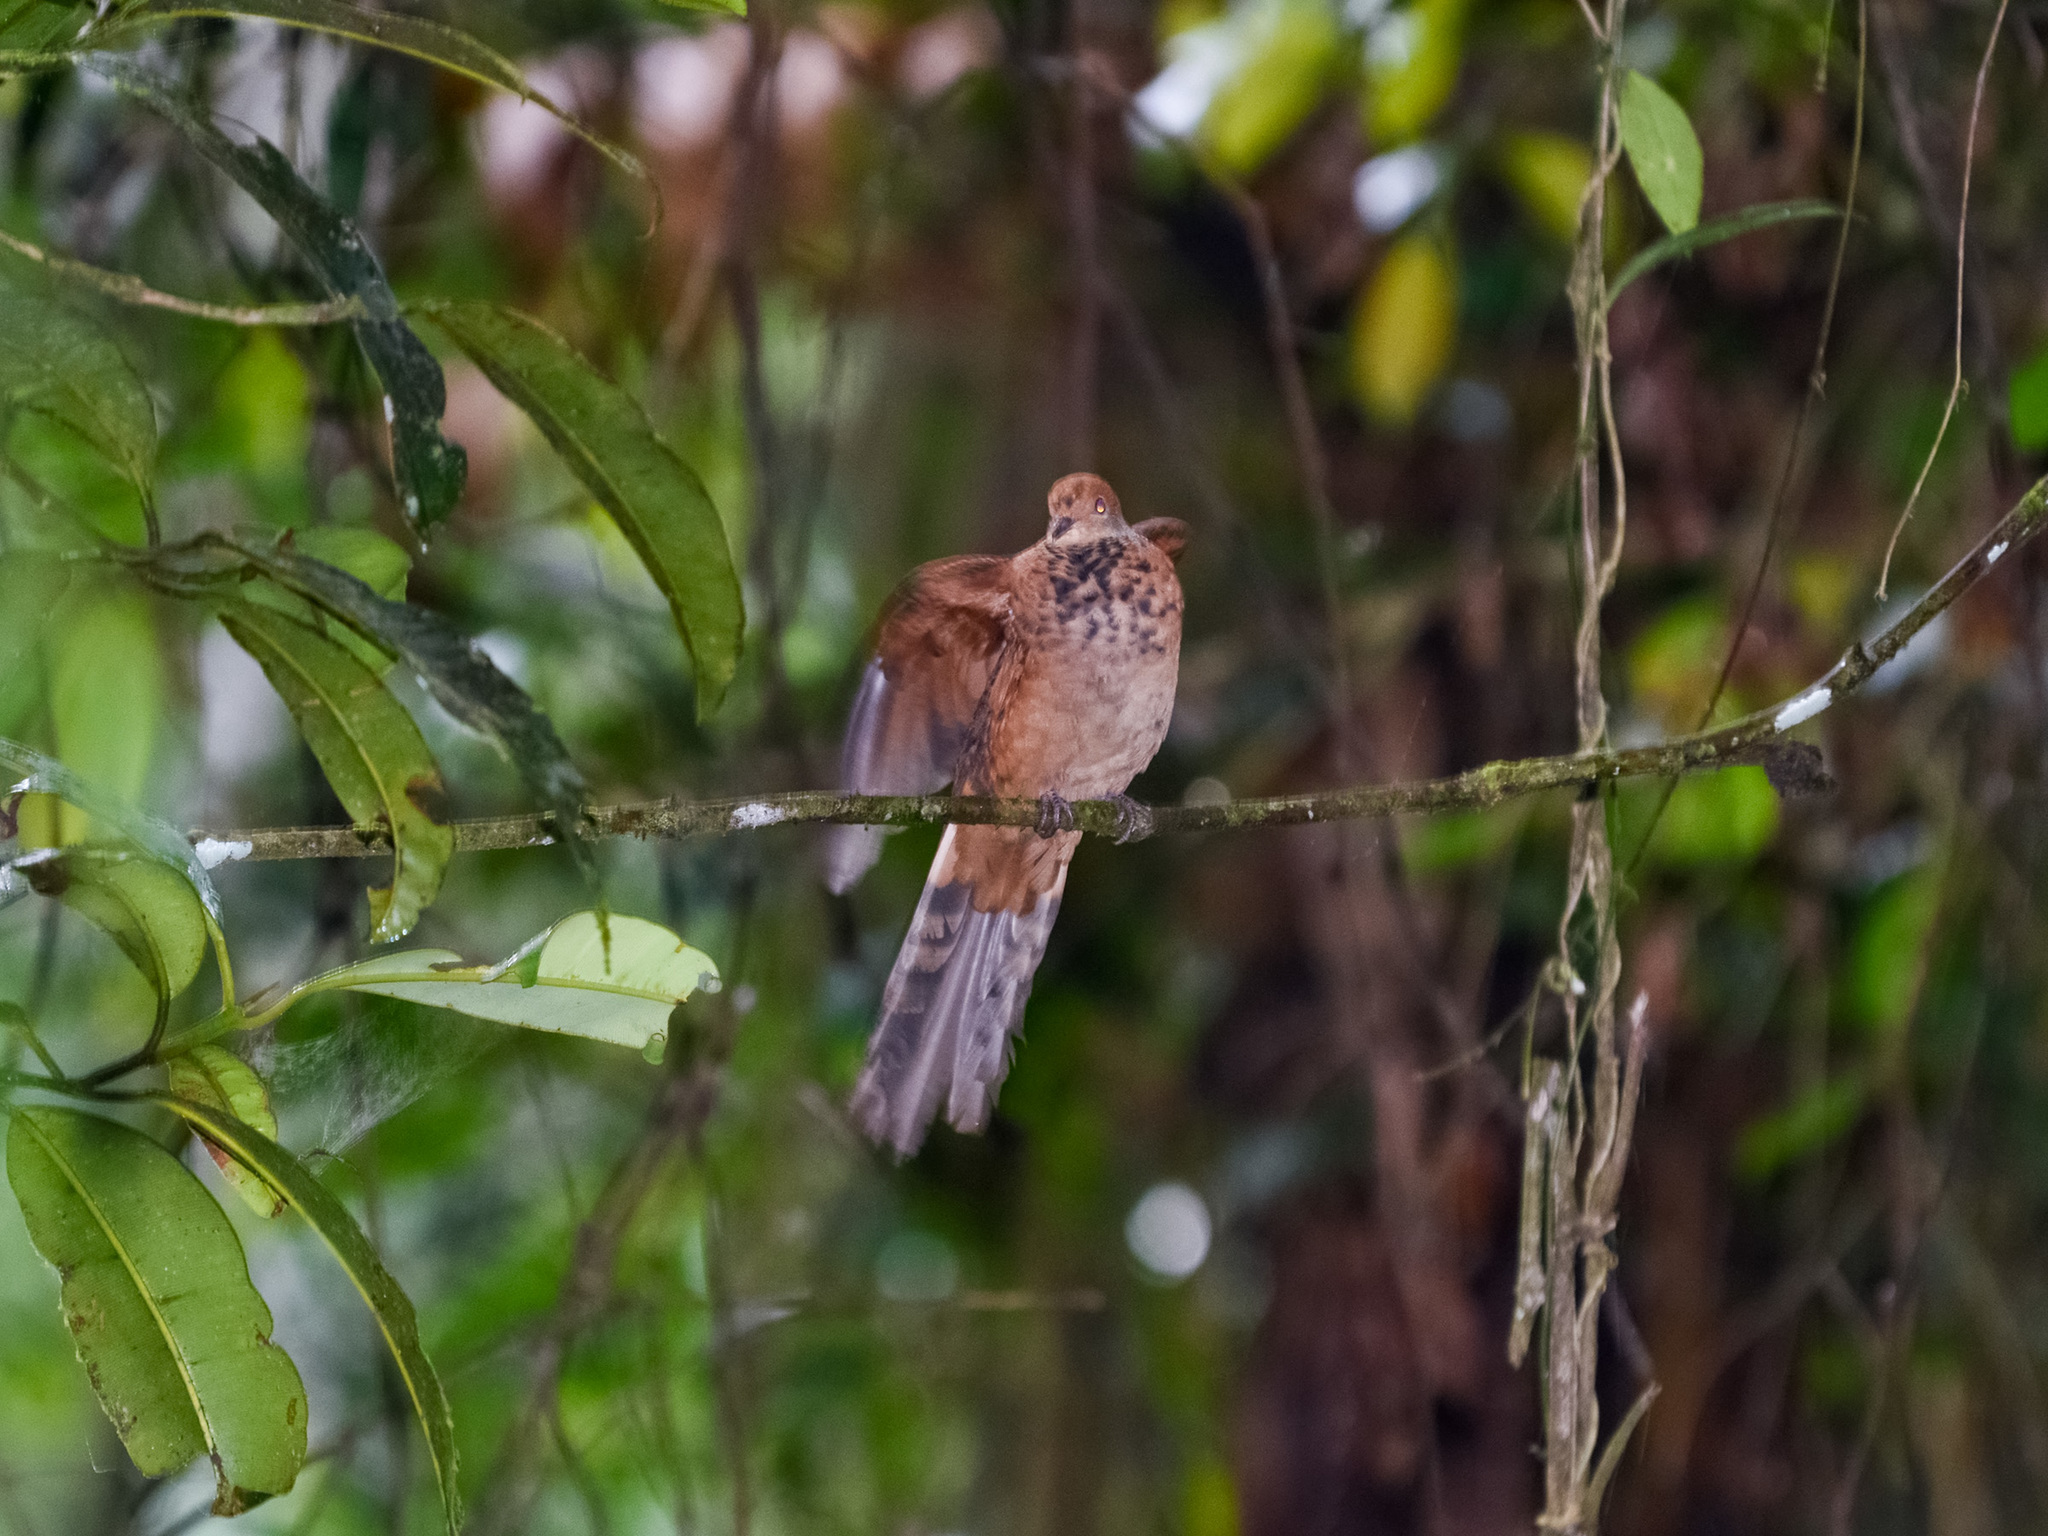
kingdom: Animalia
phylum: Chordata
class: Aves
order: Columbiformes
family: Columbidae
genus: Macropygia
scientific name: Macropygia ruficeps
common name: Little cuckoo-dove
